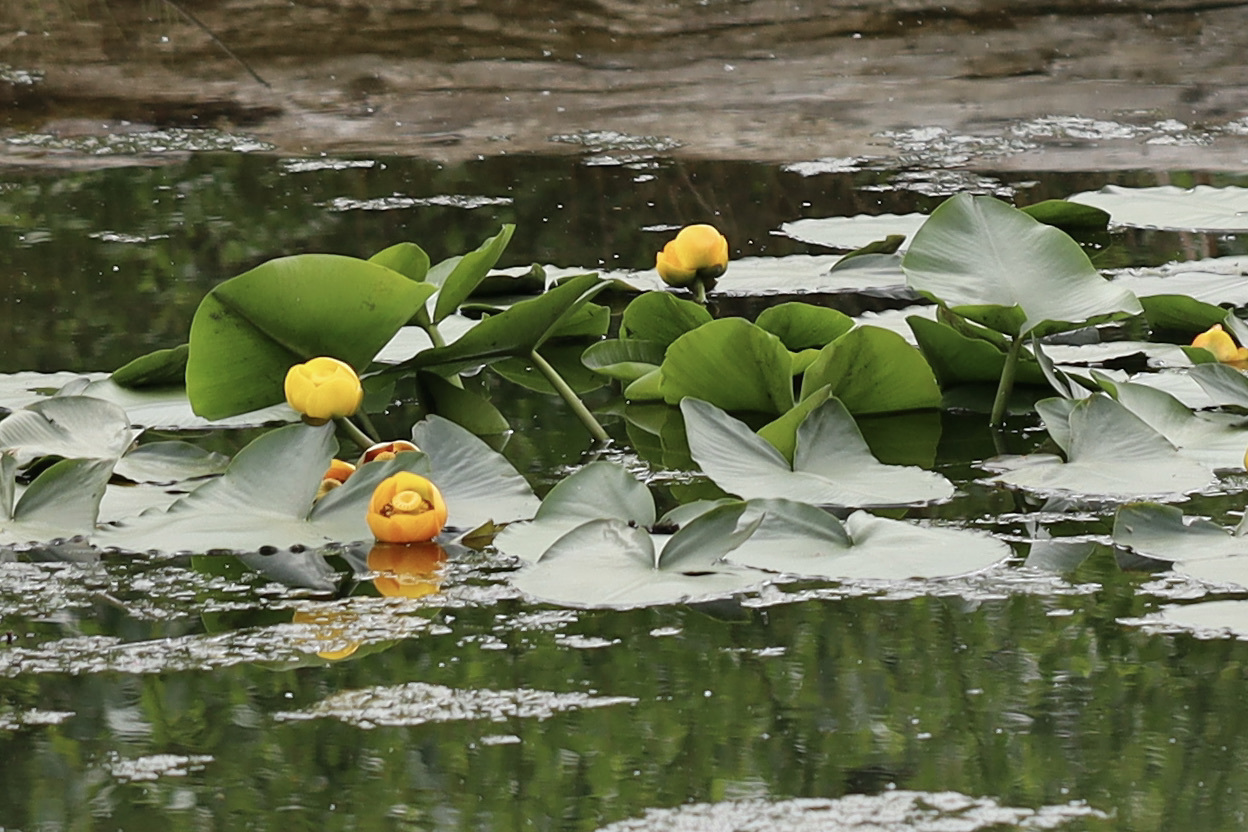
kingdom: Plantae
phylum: Tracheophyta
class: Magnoliopsida
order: Nymphaeales
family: Nymphaeaceae
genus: Nuphar
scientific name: Nuphar polysepala
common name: Rocky mountain cow-lily
